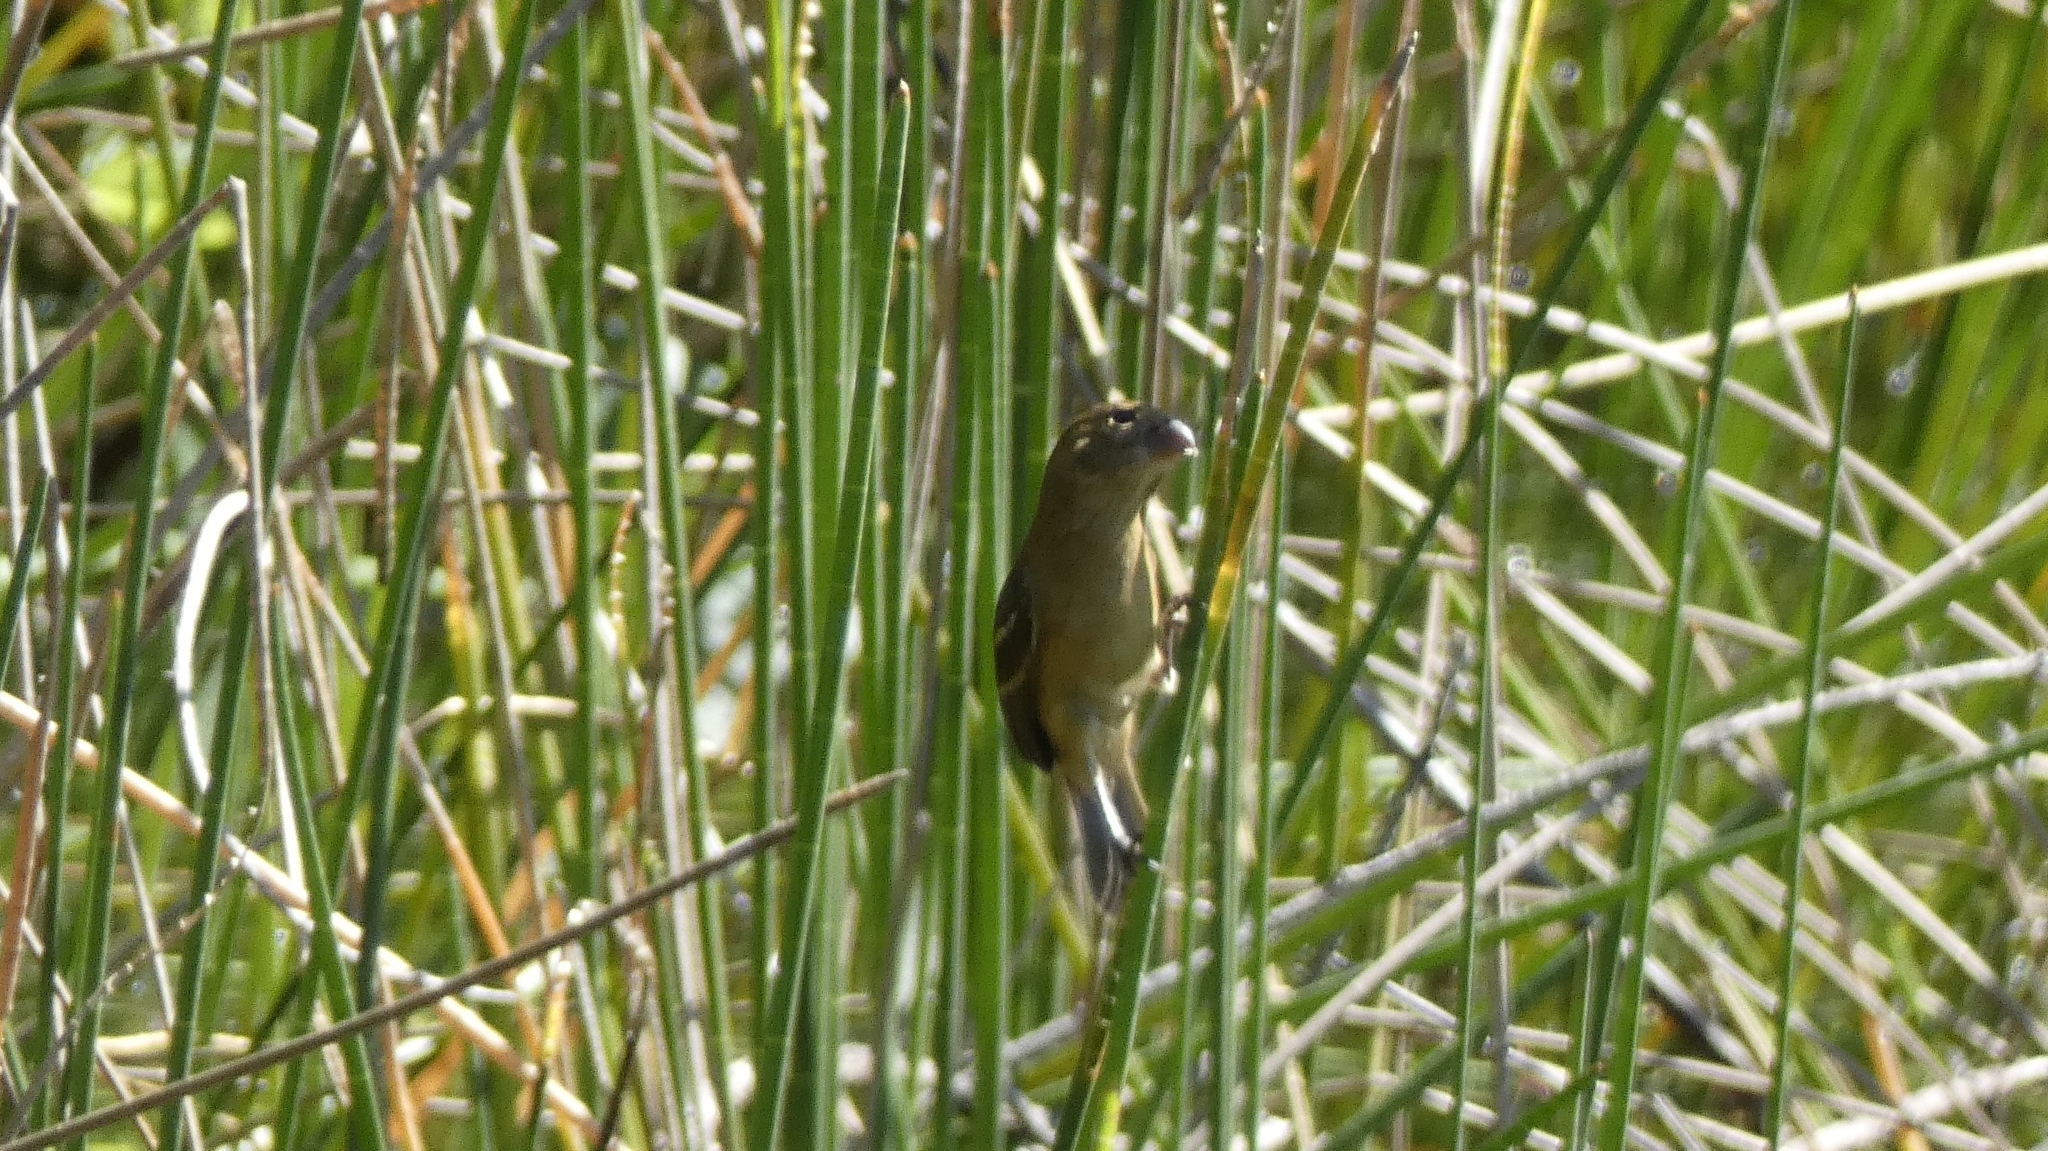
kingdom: Animalia
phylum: Chordata
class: Aves
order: Passeriformes
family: Thraupidae
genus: Sporophila
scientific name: Sporophila morelleti
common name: Morelet's seedeater
